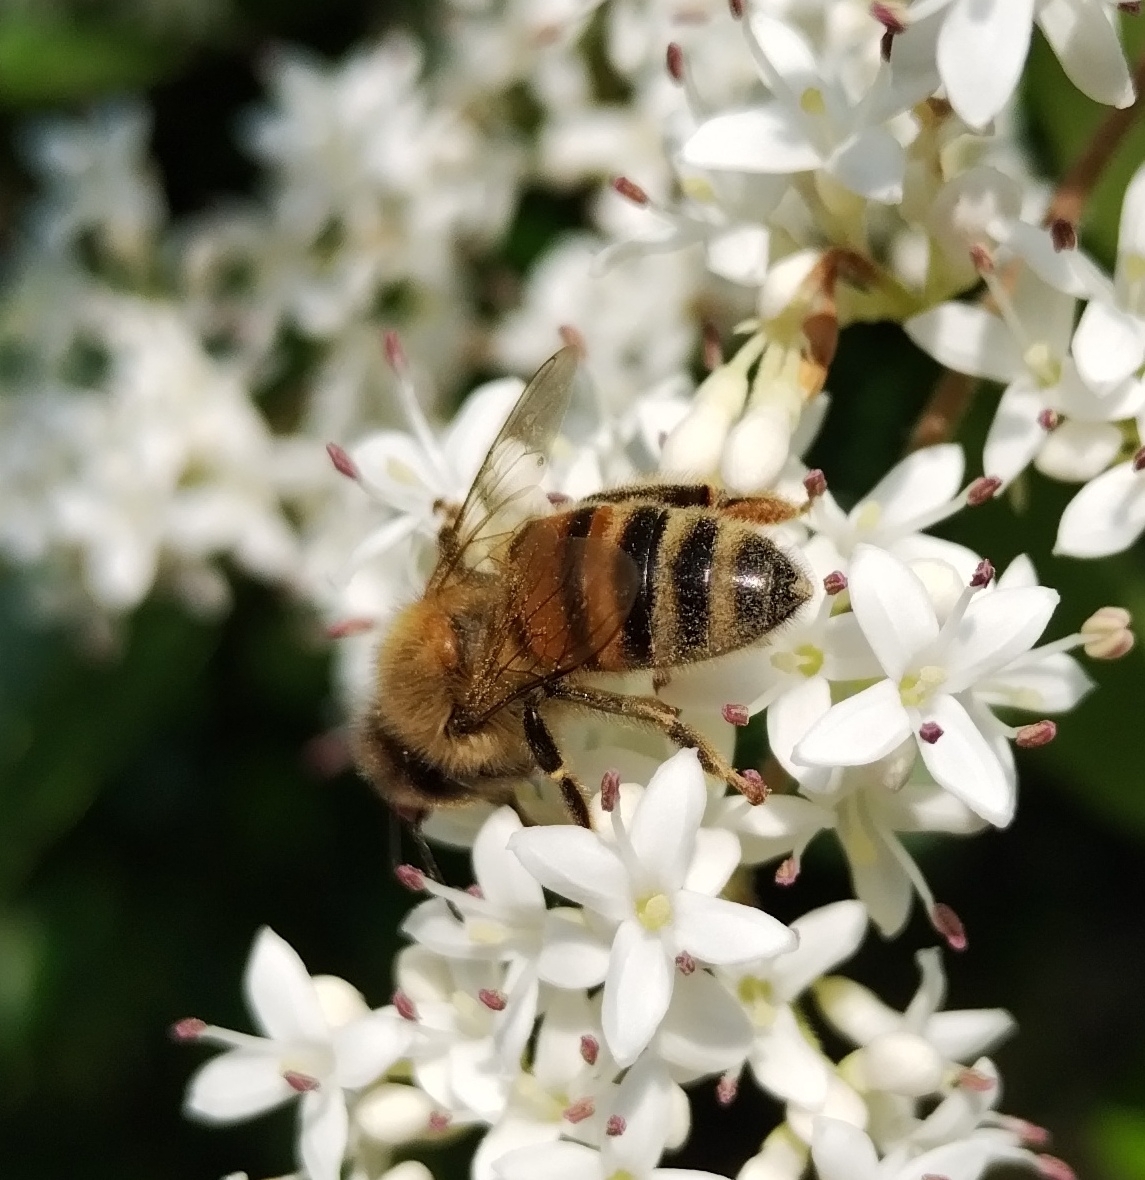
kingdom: Animalia
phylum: Arthropoda
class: Insecta
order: Hymenoptera
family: Apidae
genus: Apis
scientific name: Apis mellifera
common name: Honey bee
